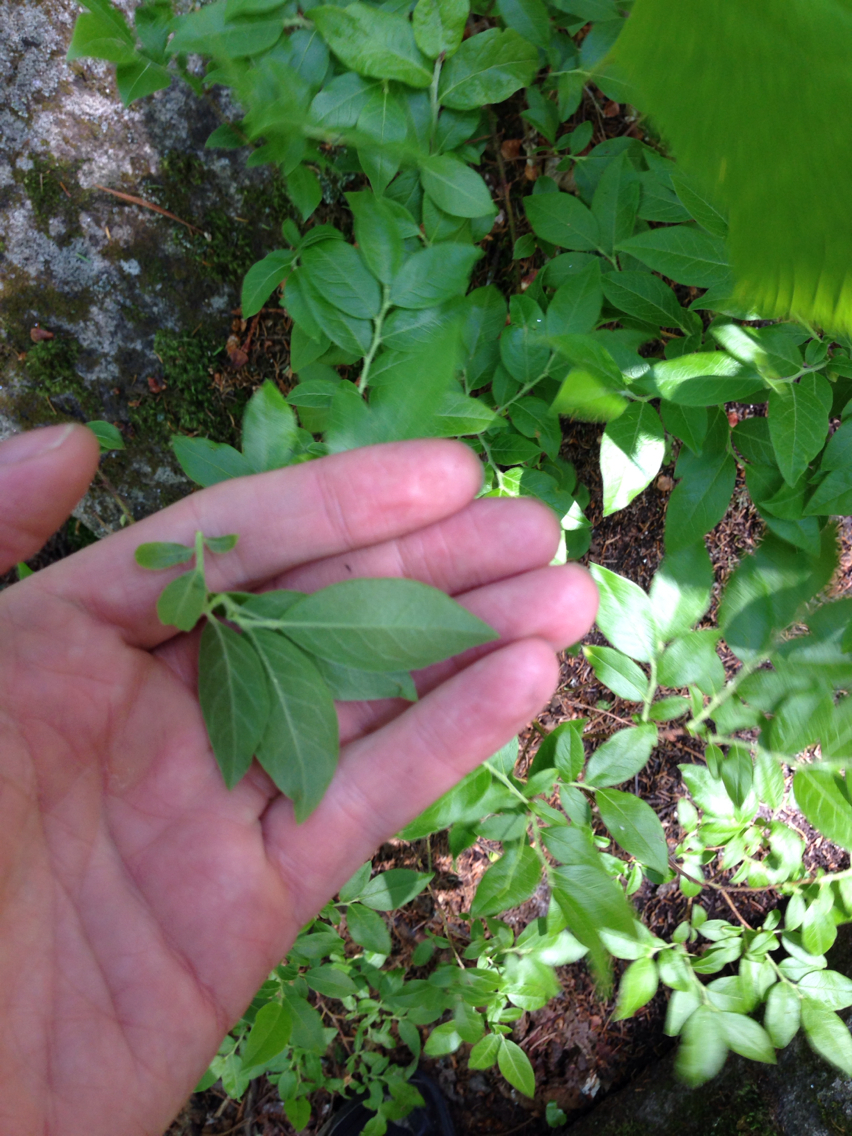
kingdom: Plantae
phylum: Tracheophyta
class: Magnoliopsida
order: Ericales
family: Ericaceae
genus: Vaccinium
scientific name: Vaccinium myrtilloides
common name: Canada blueberry
